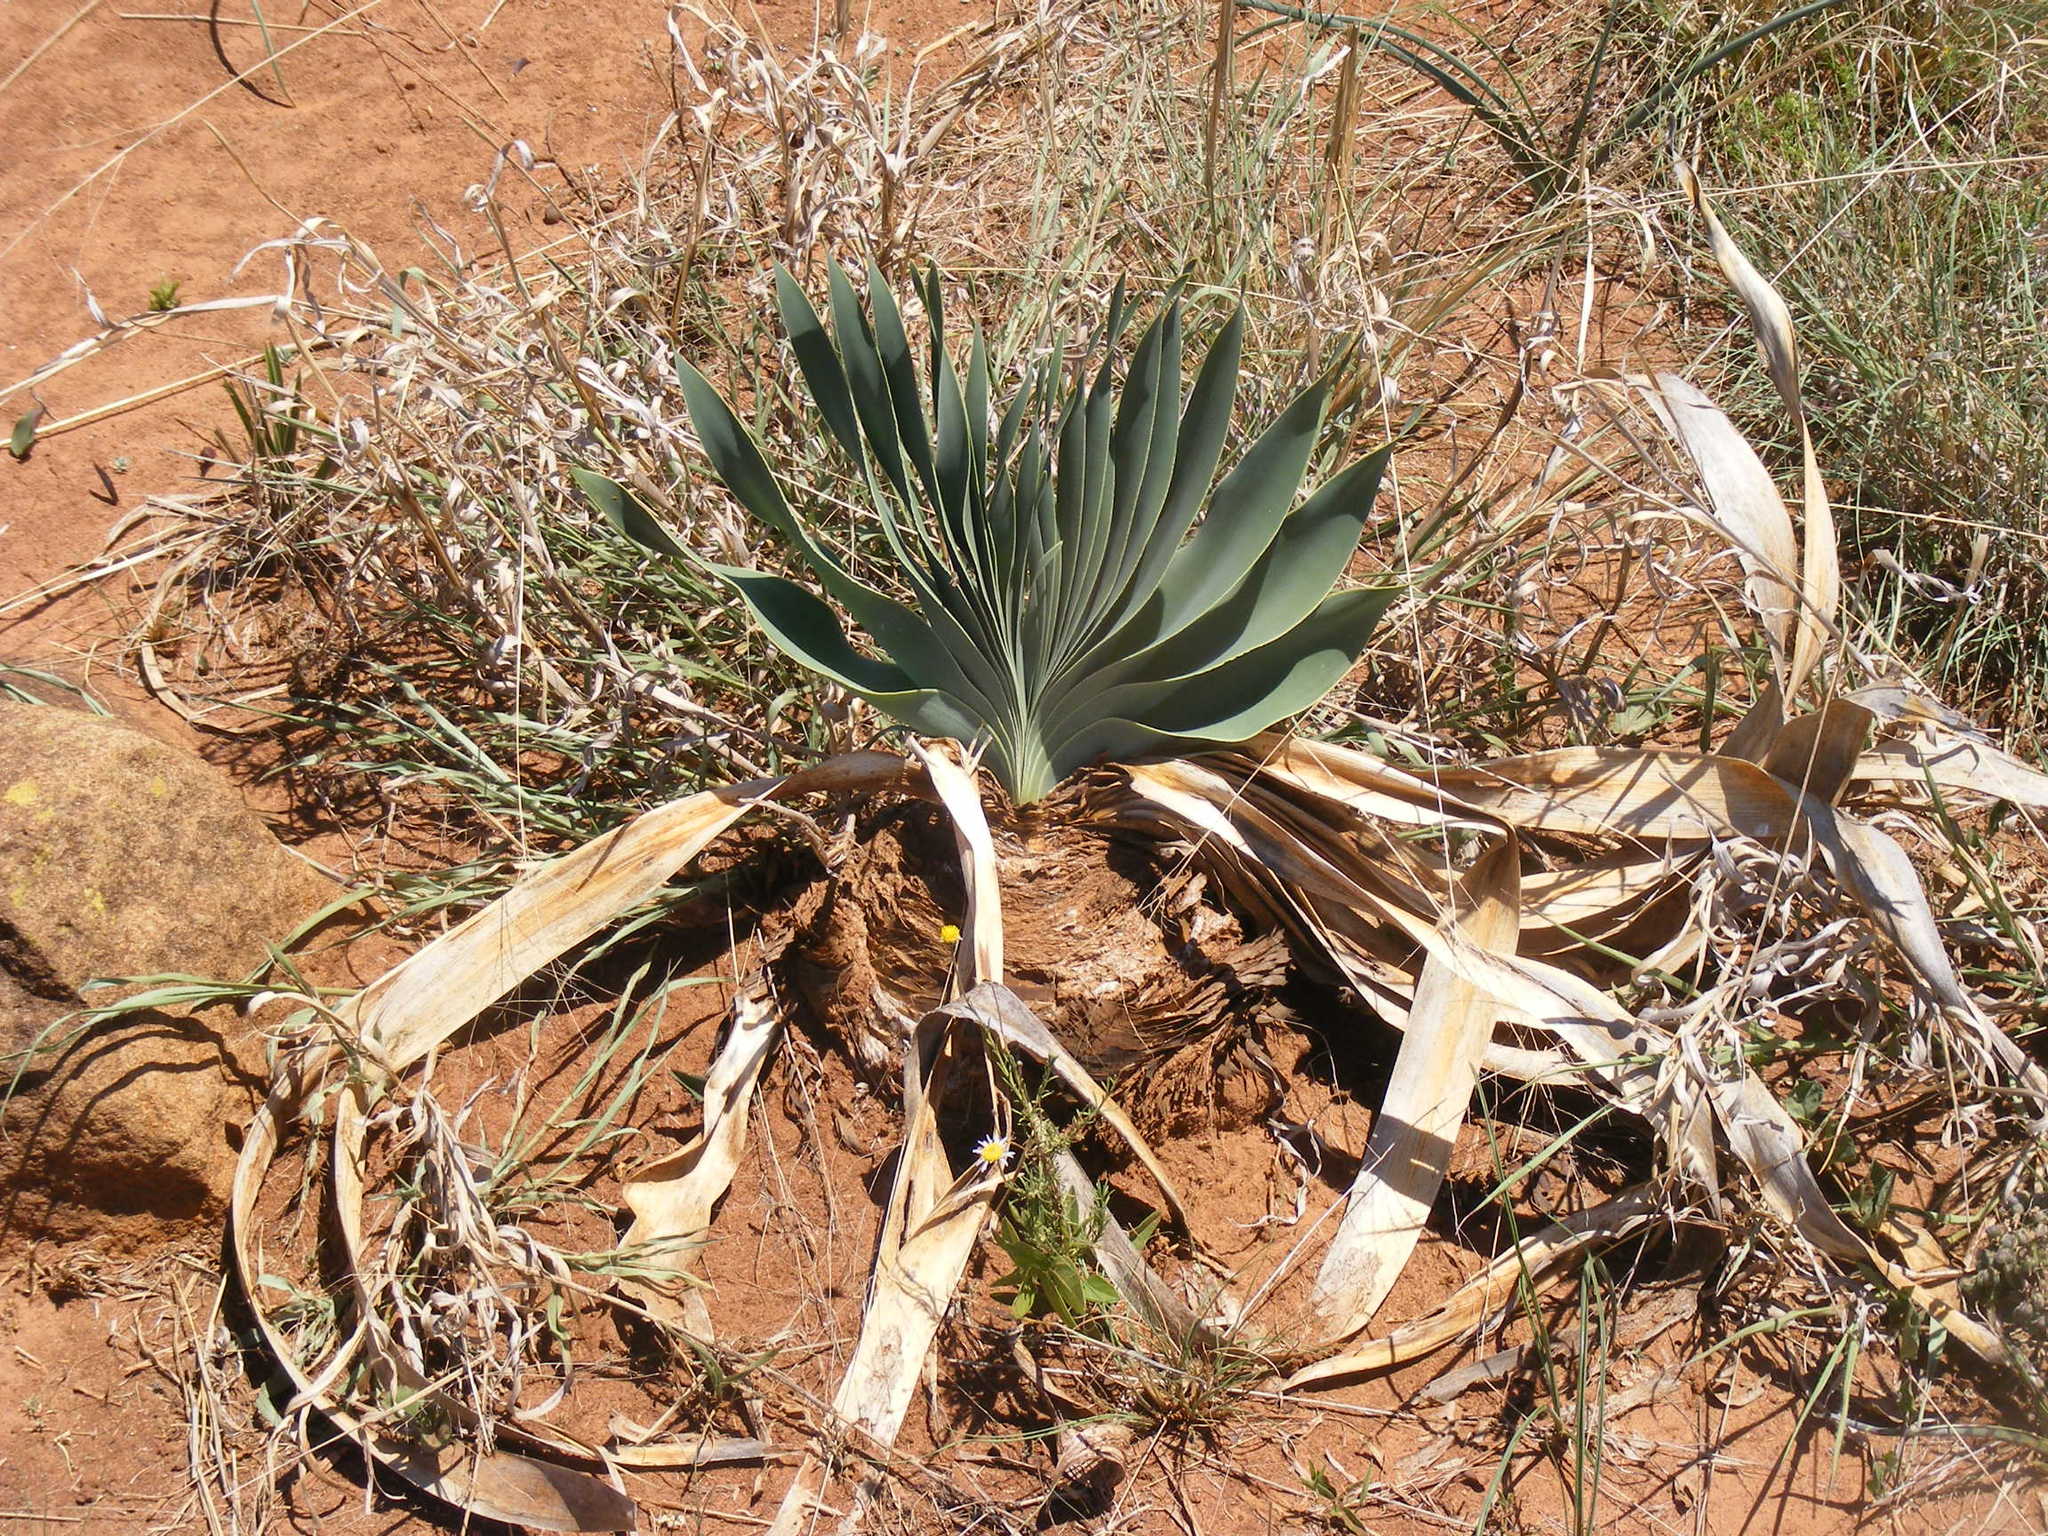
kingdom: Plantae
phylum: Tracheophyta
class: Liliopsida
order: Asparagales
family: Amaryllidaceae
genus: Boophone
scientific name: Boophone disticha
